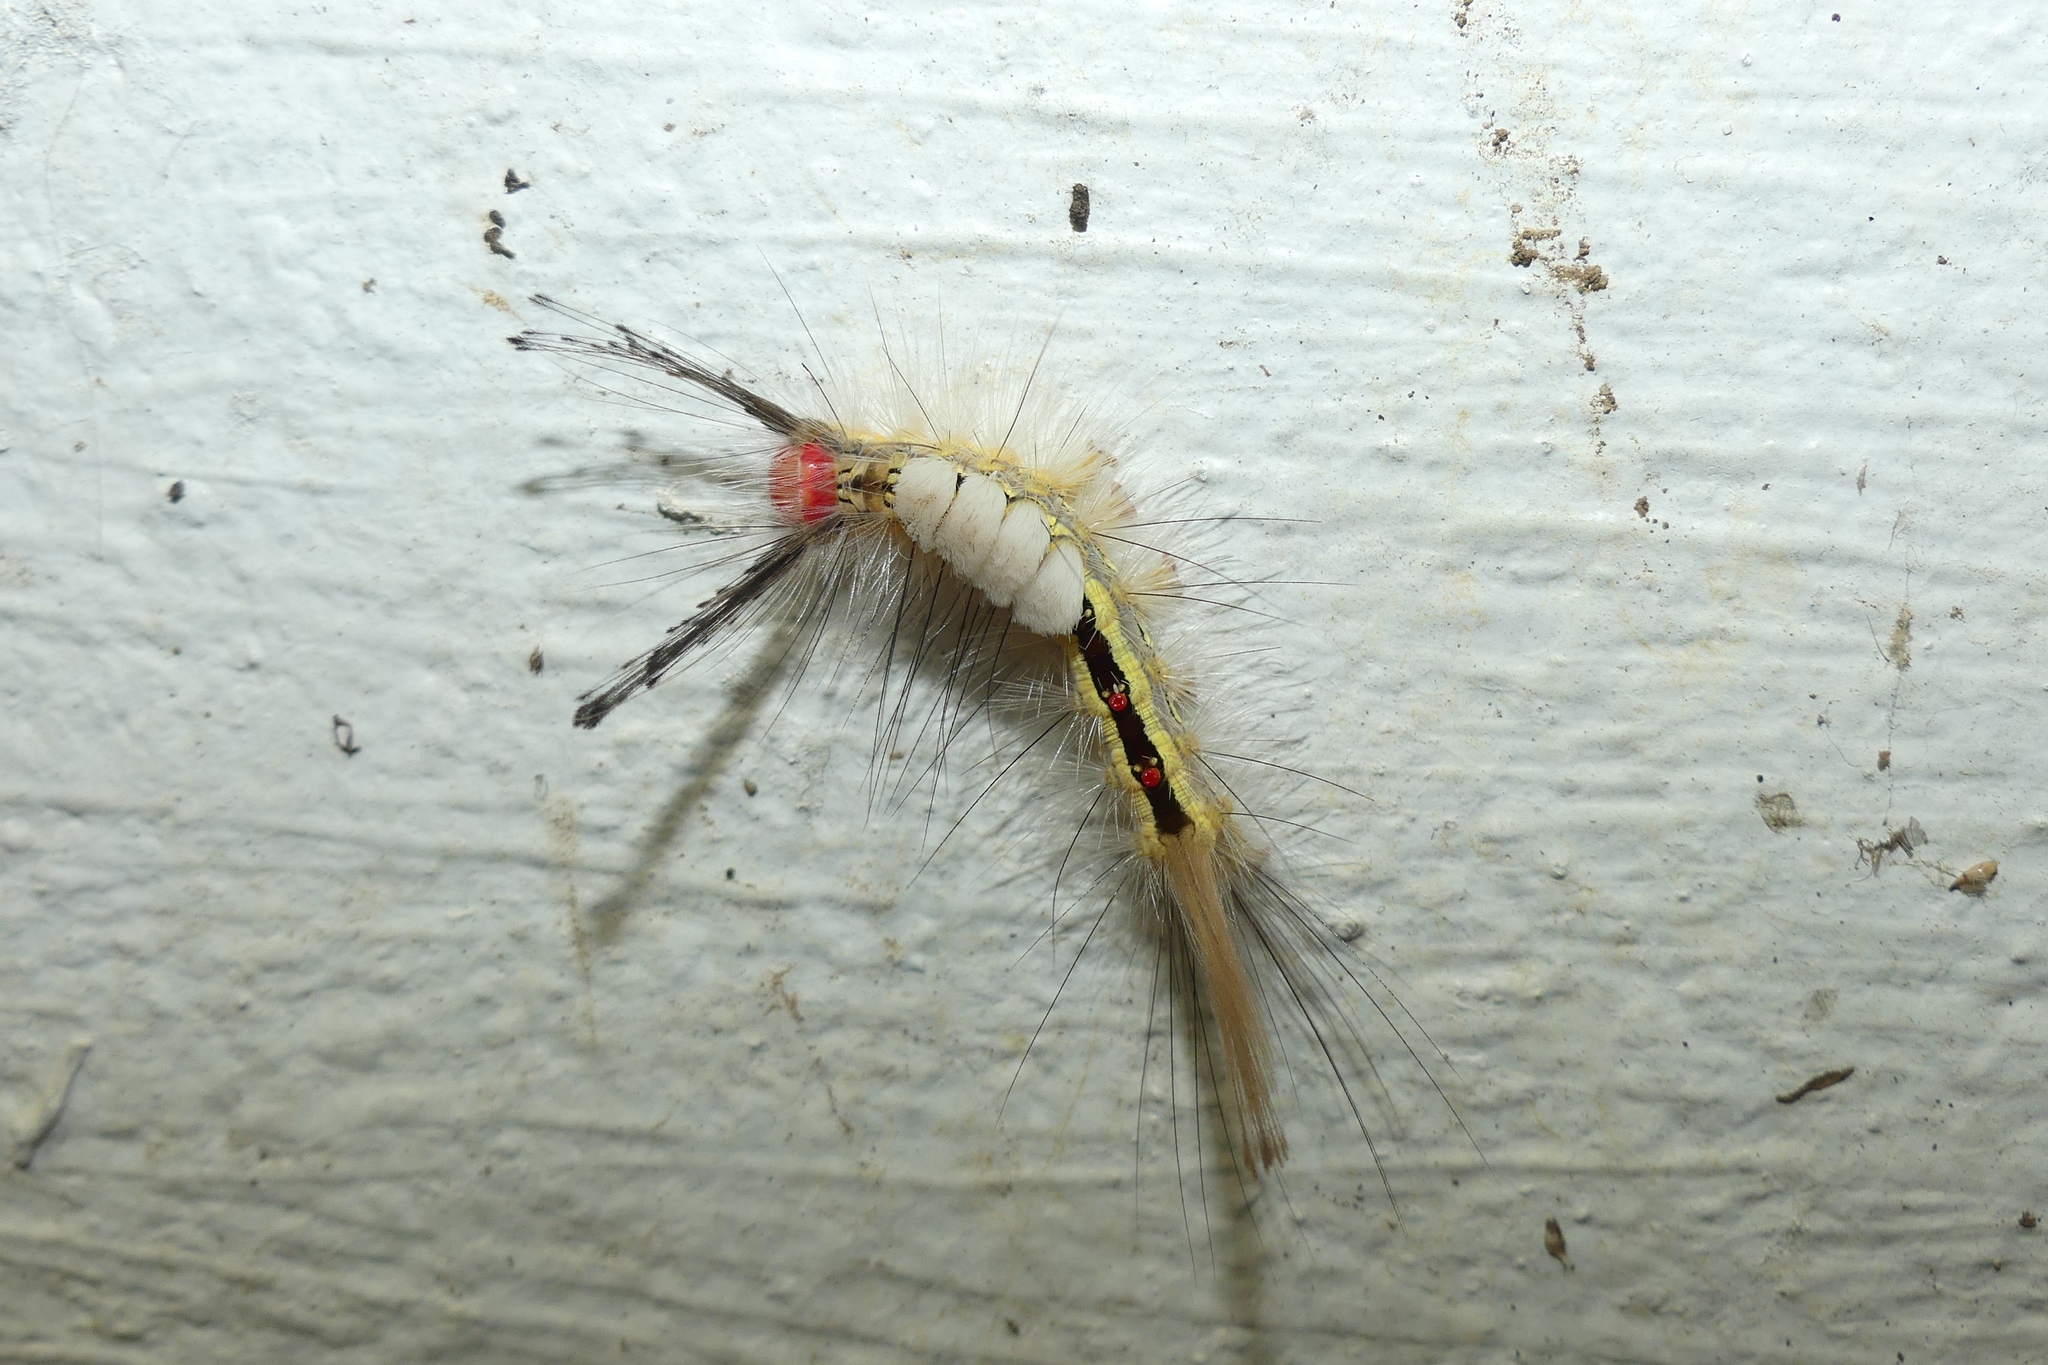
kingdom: Animalia
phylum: Arthropoda
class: Insecta
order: Lepidoptera
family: Erebidae
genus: Orgyia
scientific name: Orgyia leucostigma
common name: White-marked tussock moth
